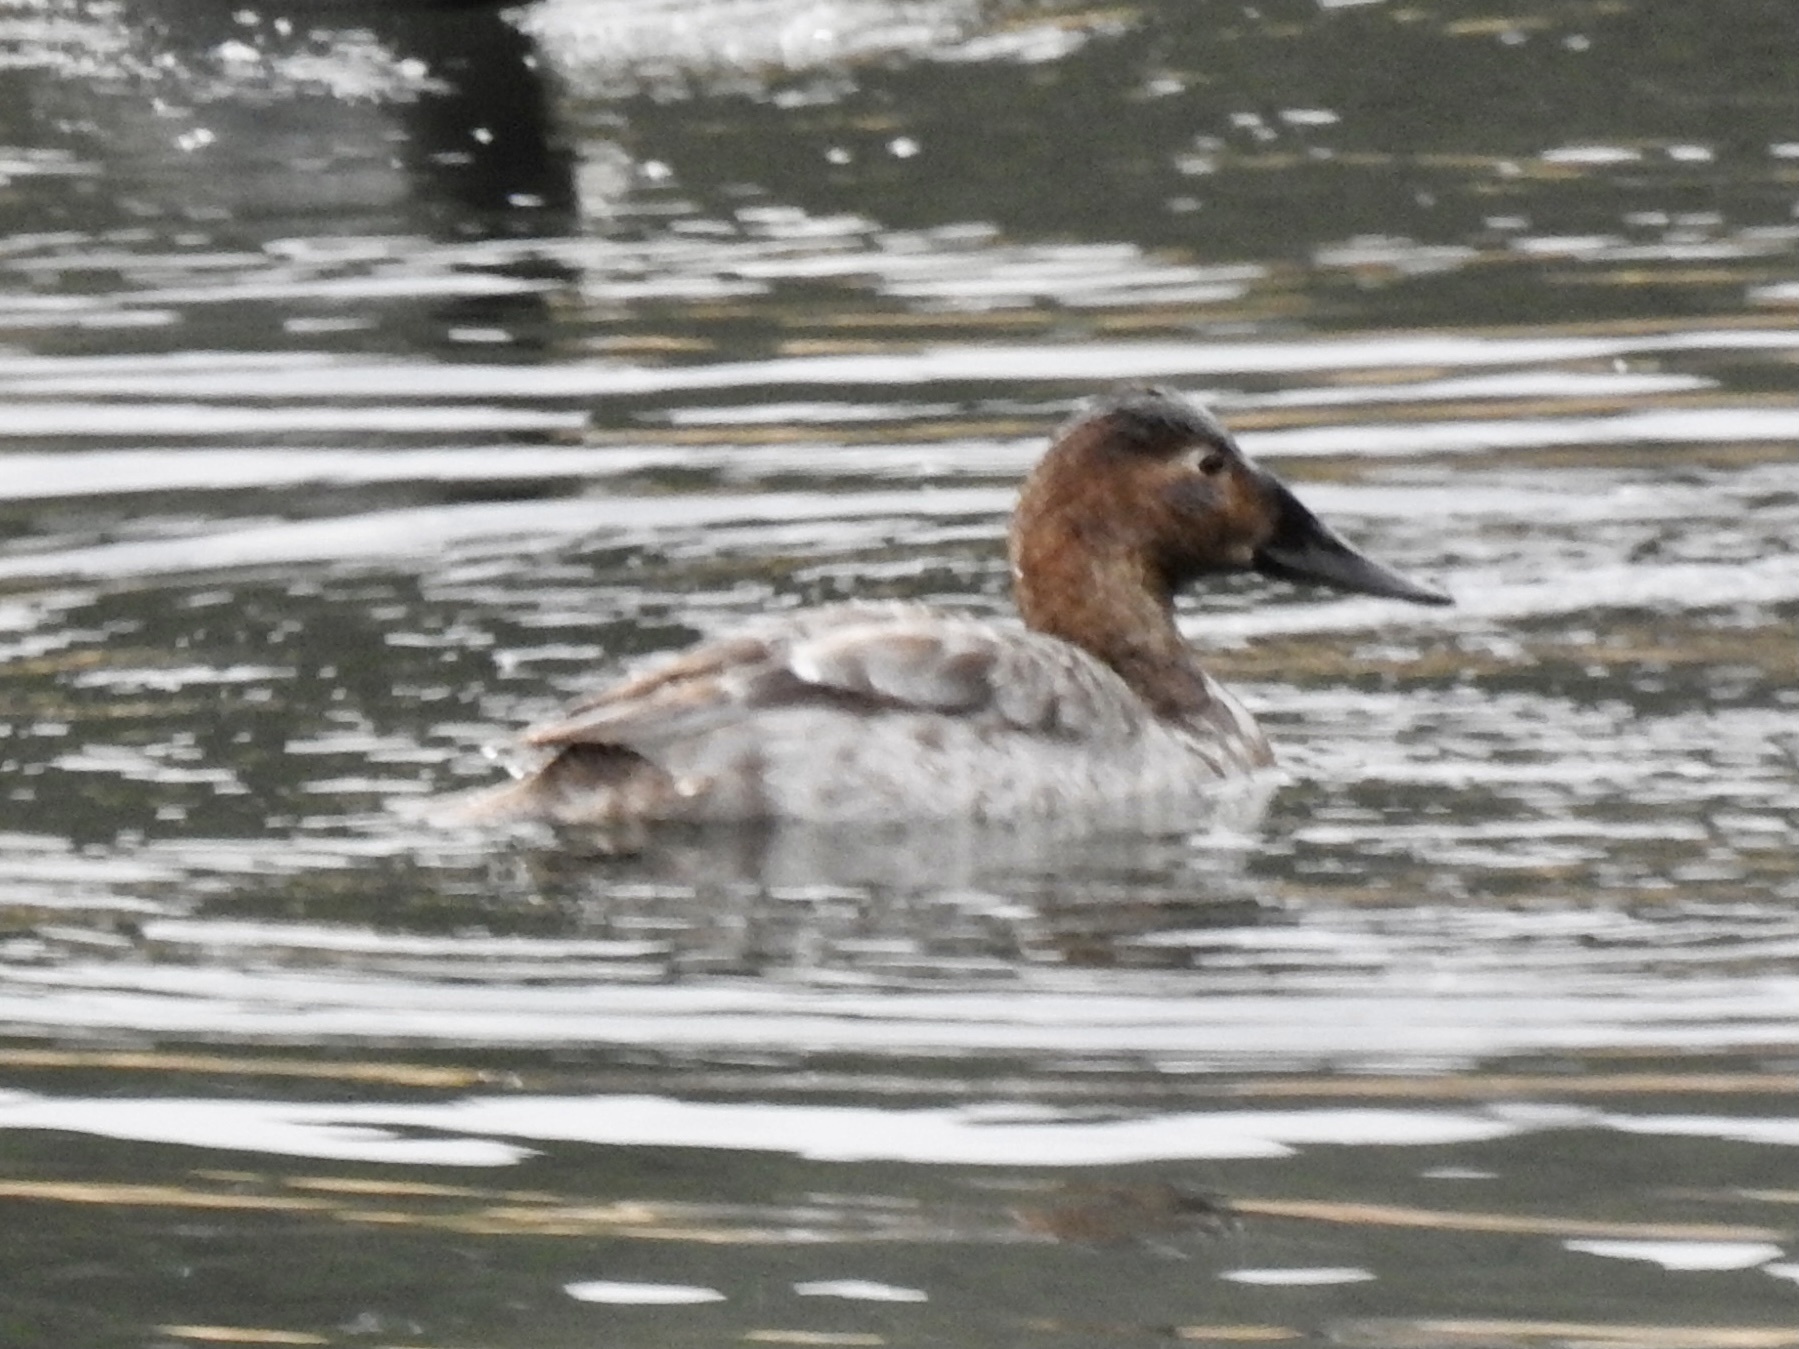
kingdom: Animalia
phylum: Chordata
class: Aves
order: Anseriformes
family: Anatidae
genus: Aythya
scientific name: Aythya valisineria
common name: Canvasback
